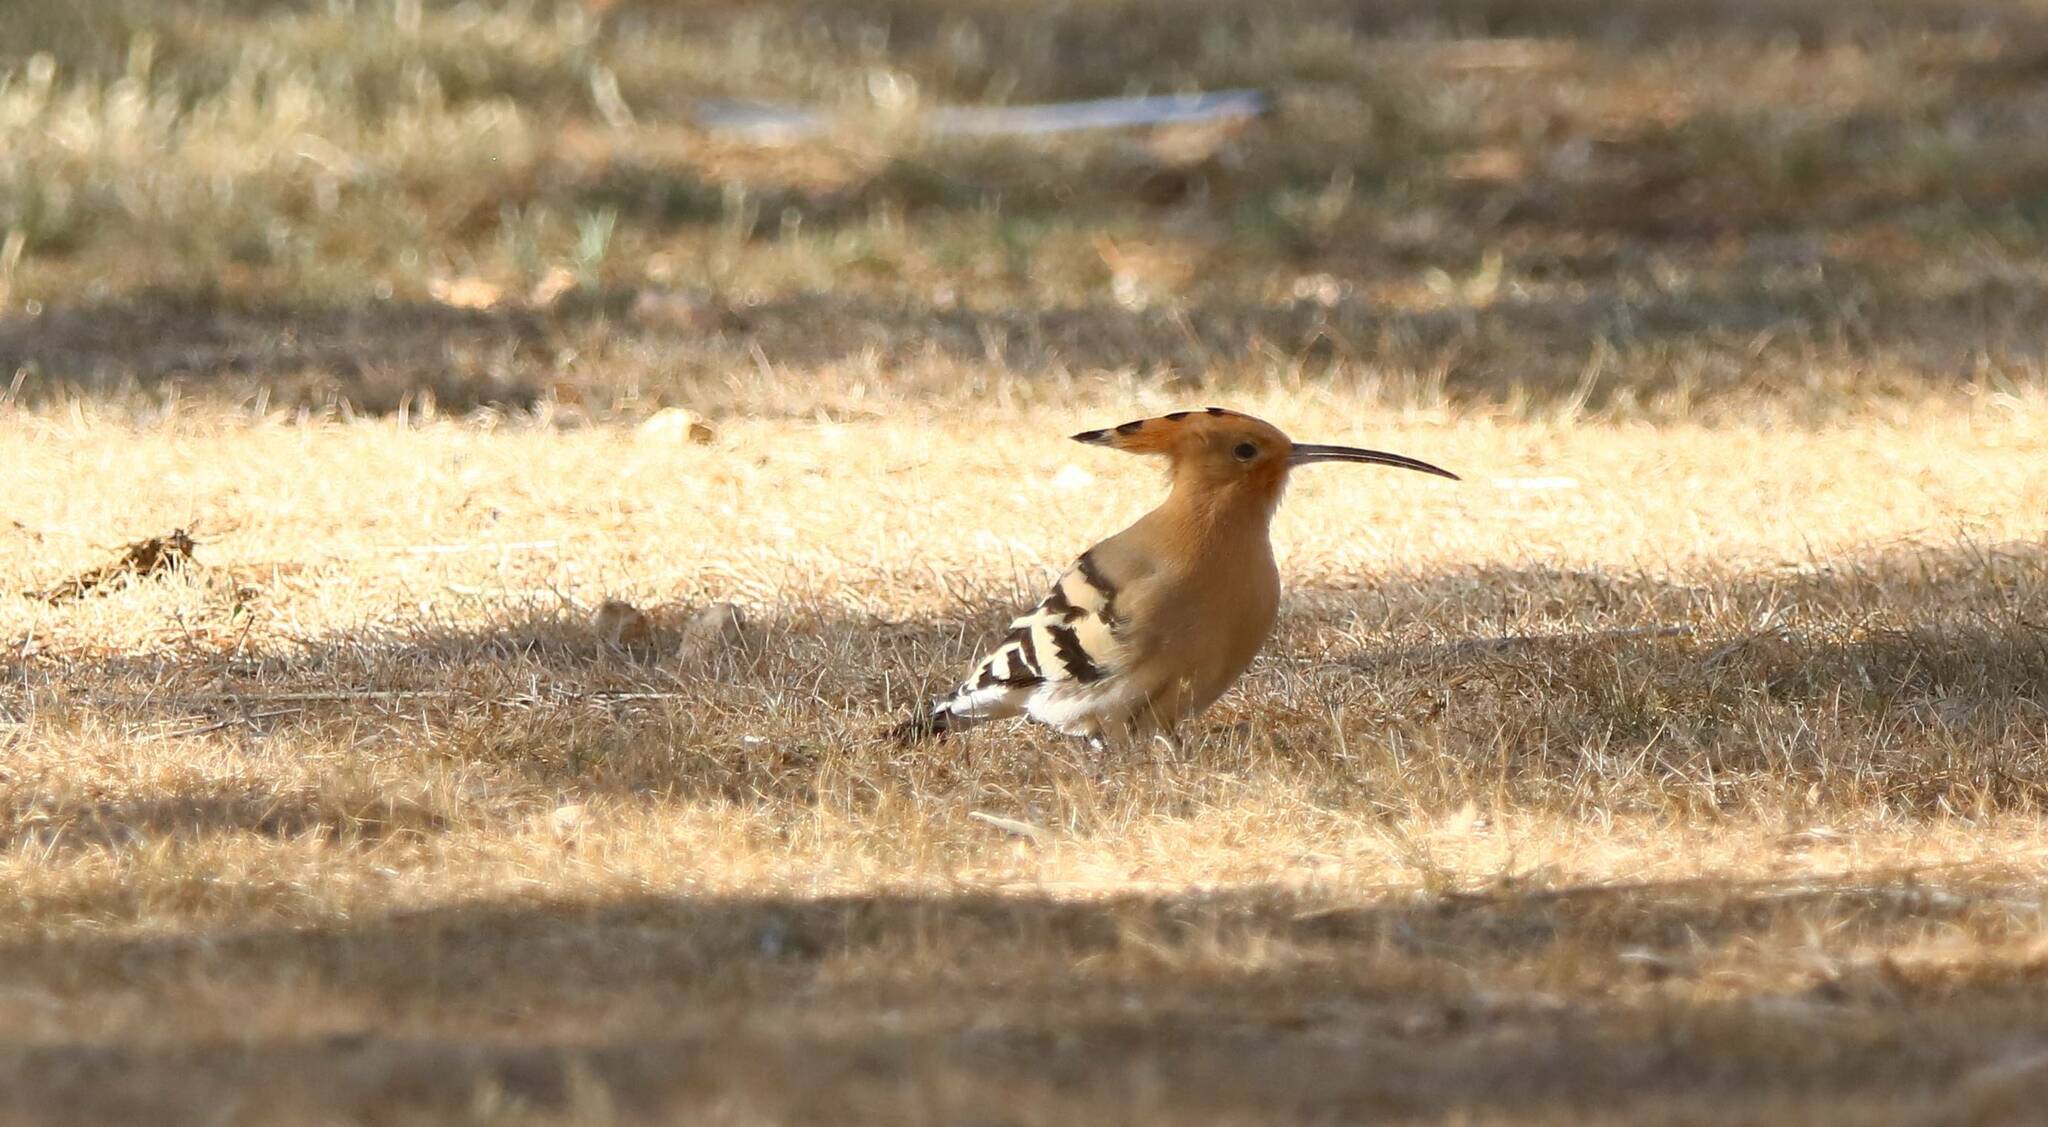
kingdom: Animalia
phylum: Chordata
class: Aves
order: Bucerotiformes
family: Upupidae
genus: Upupa
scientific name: Upupa epops
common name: Eurasian hoopoe
